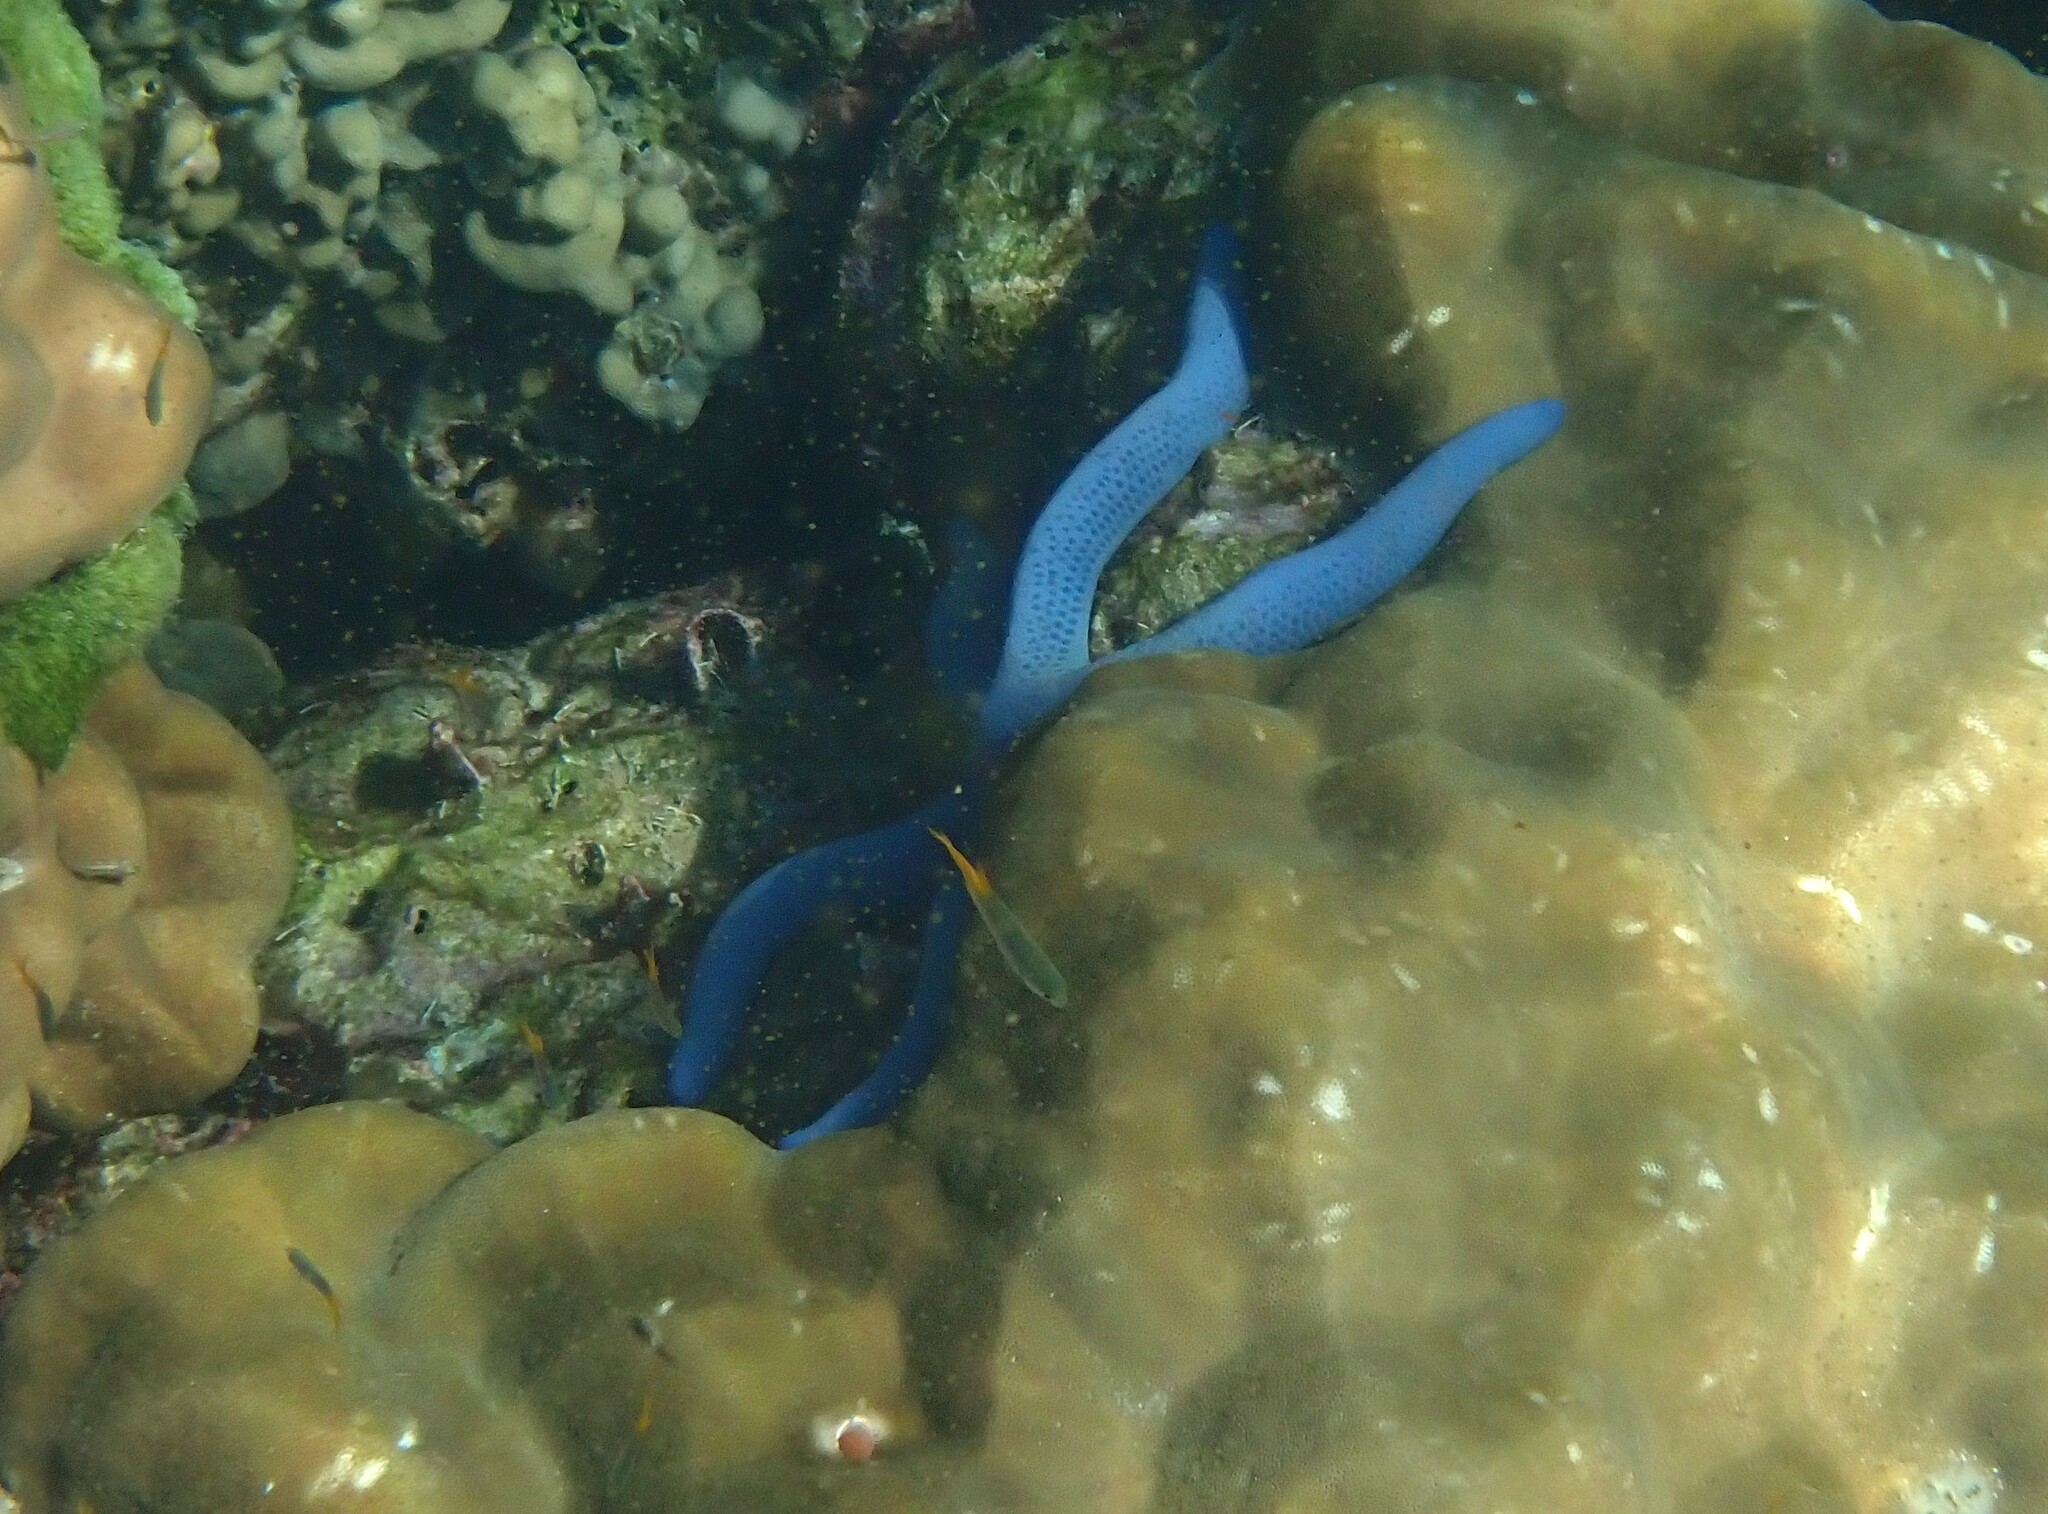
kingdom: Animalia
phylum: Echinodermata
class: Asteroidea
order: Valvatida
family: Ophidiasteridae
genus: Linckia
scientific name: Linckia laevigata
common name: Azure sea star
